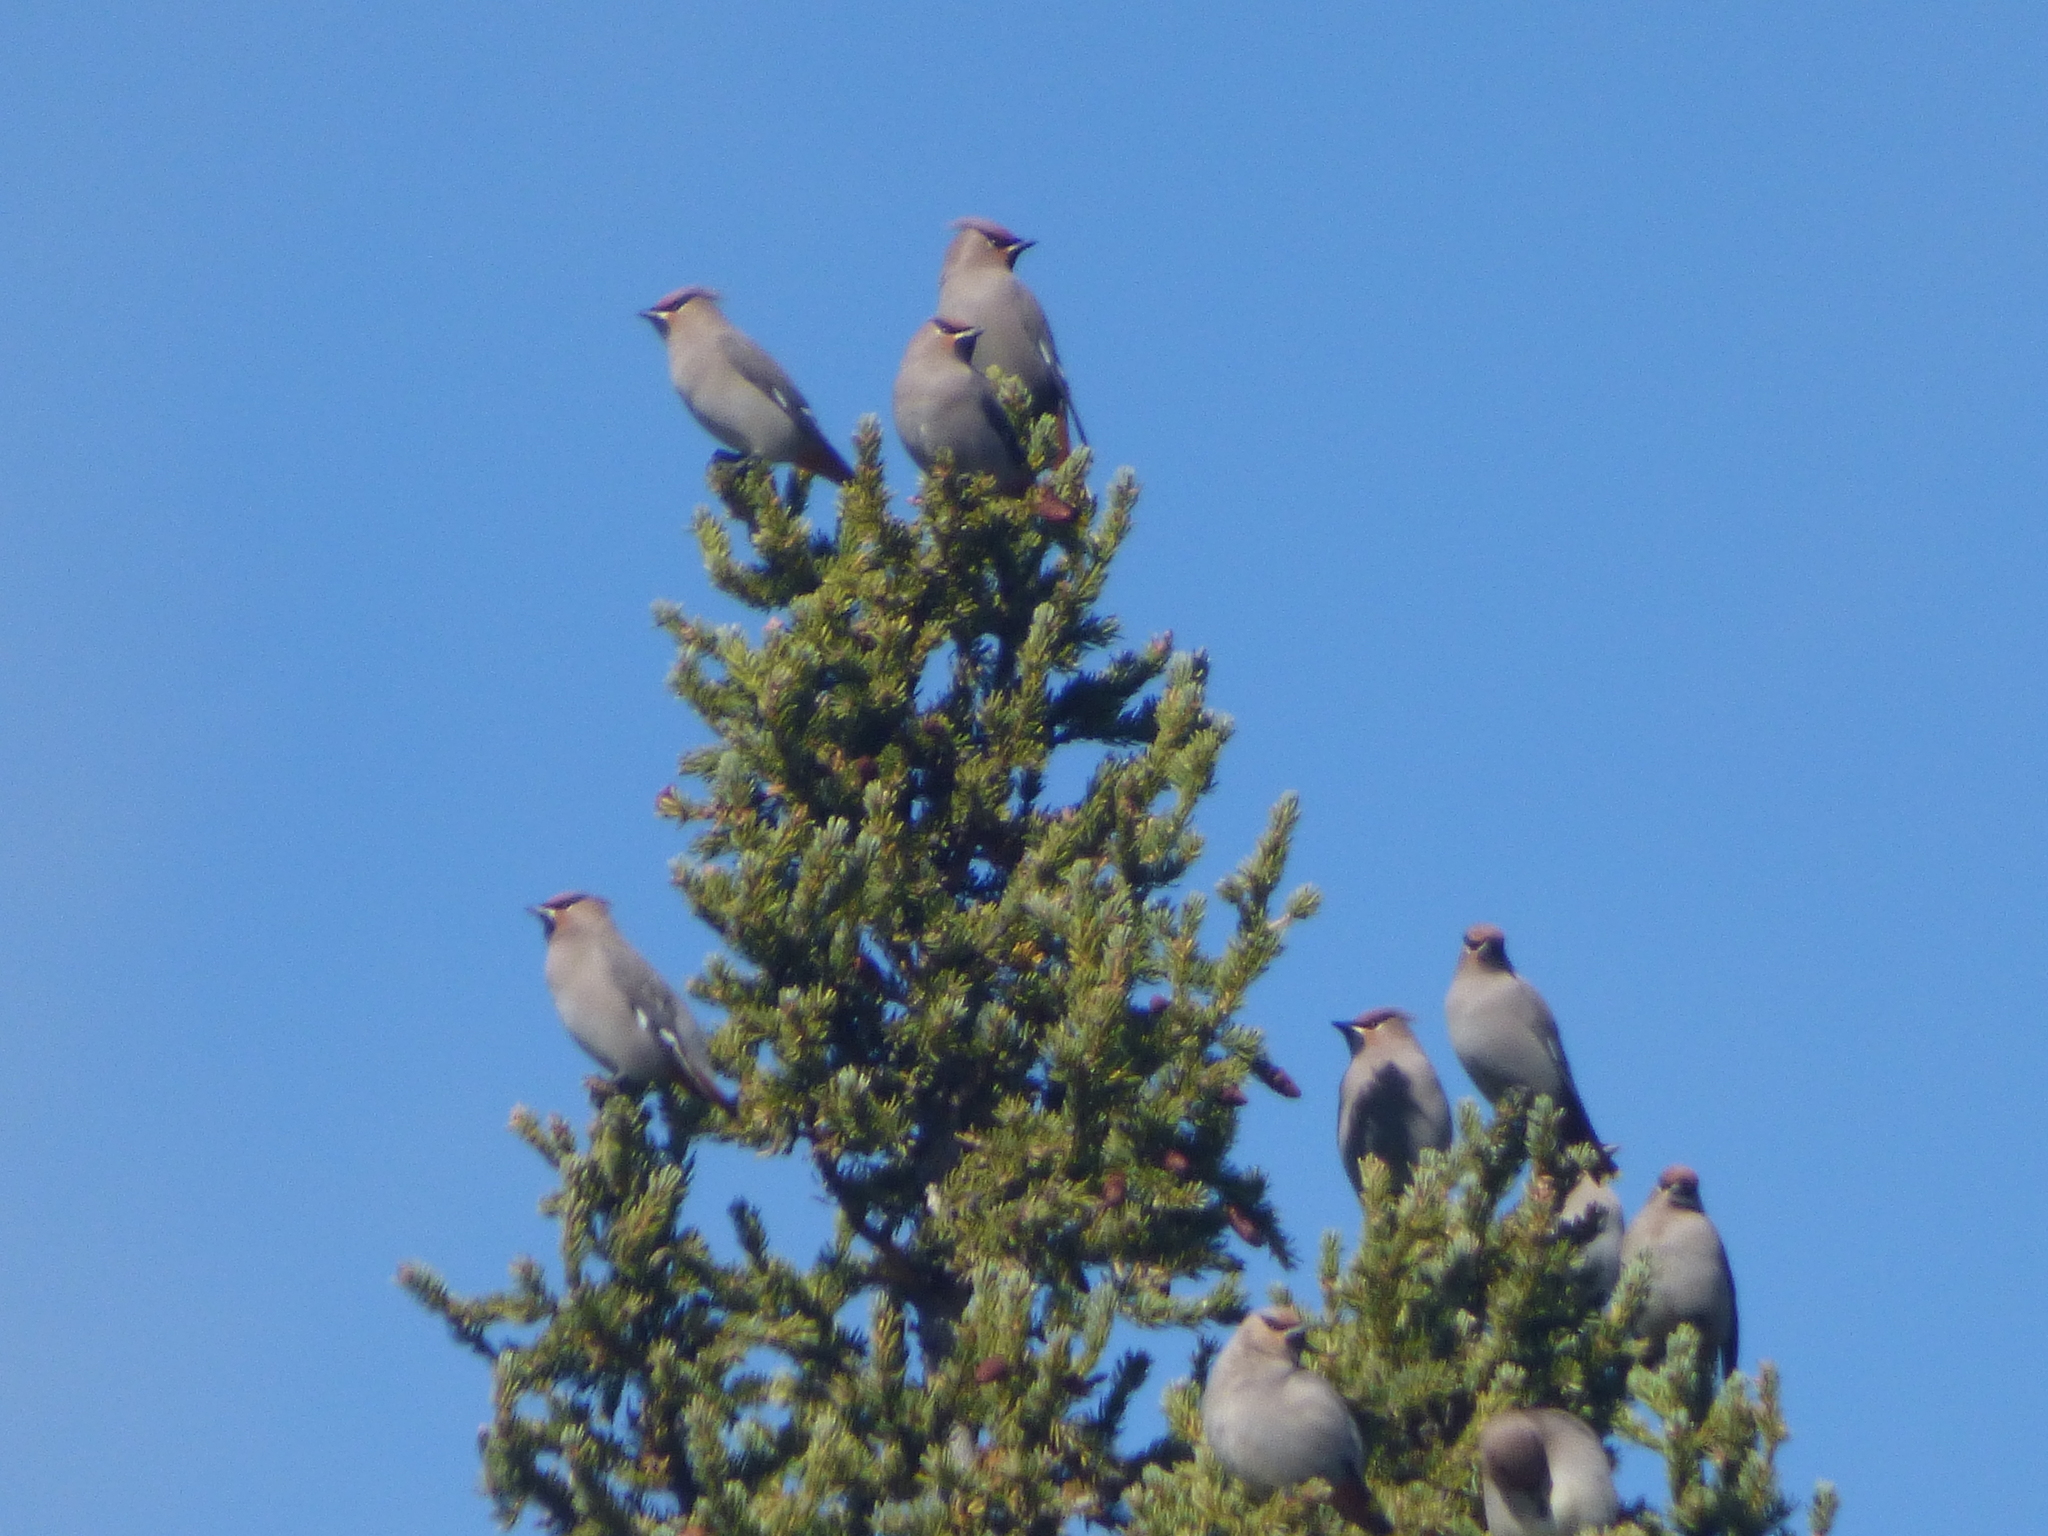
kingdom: Animalia
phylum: Chordata
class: Aves
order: Passeriformes
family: Bombycillidae
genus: Bombycilla
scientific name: Bombycilla garrulus
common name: Bohemian waxwing
